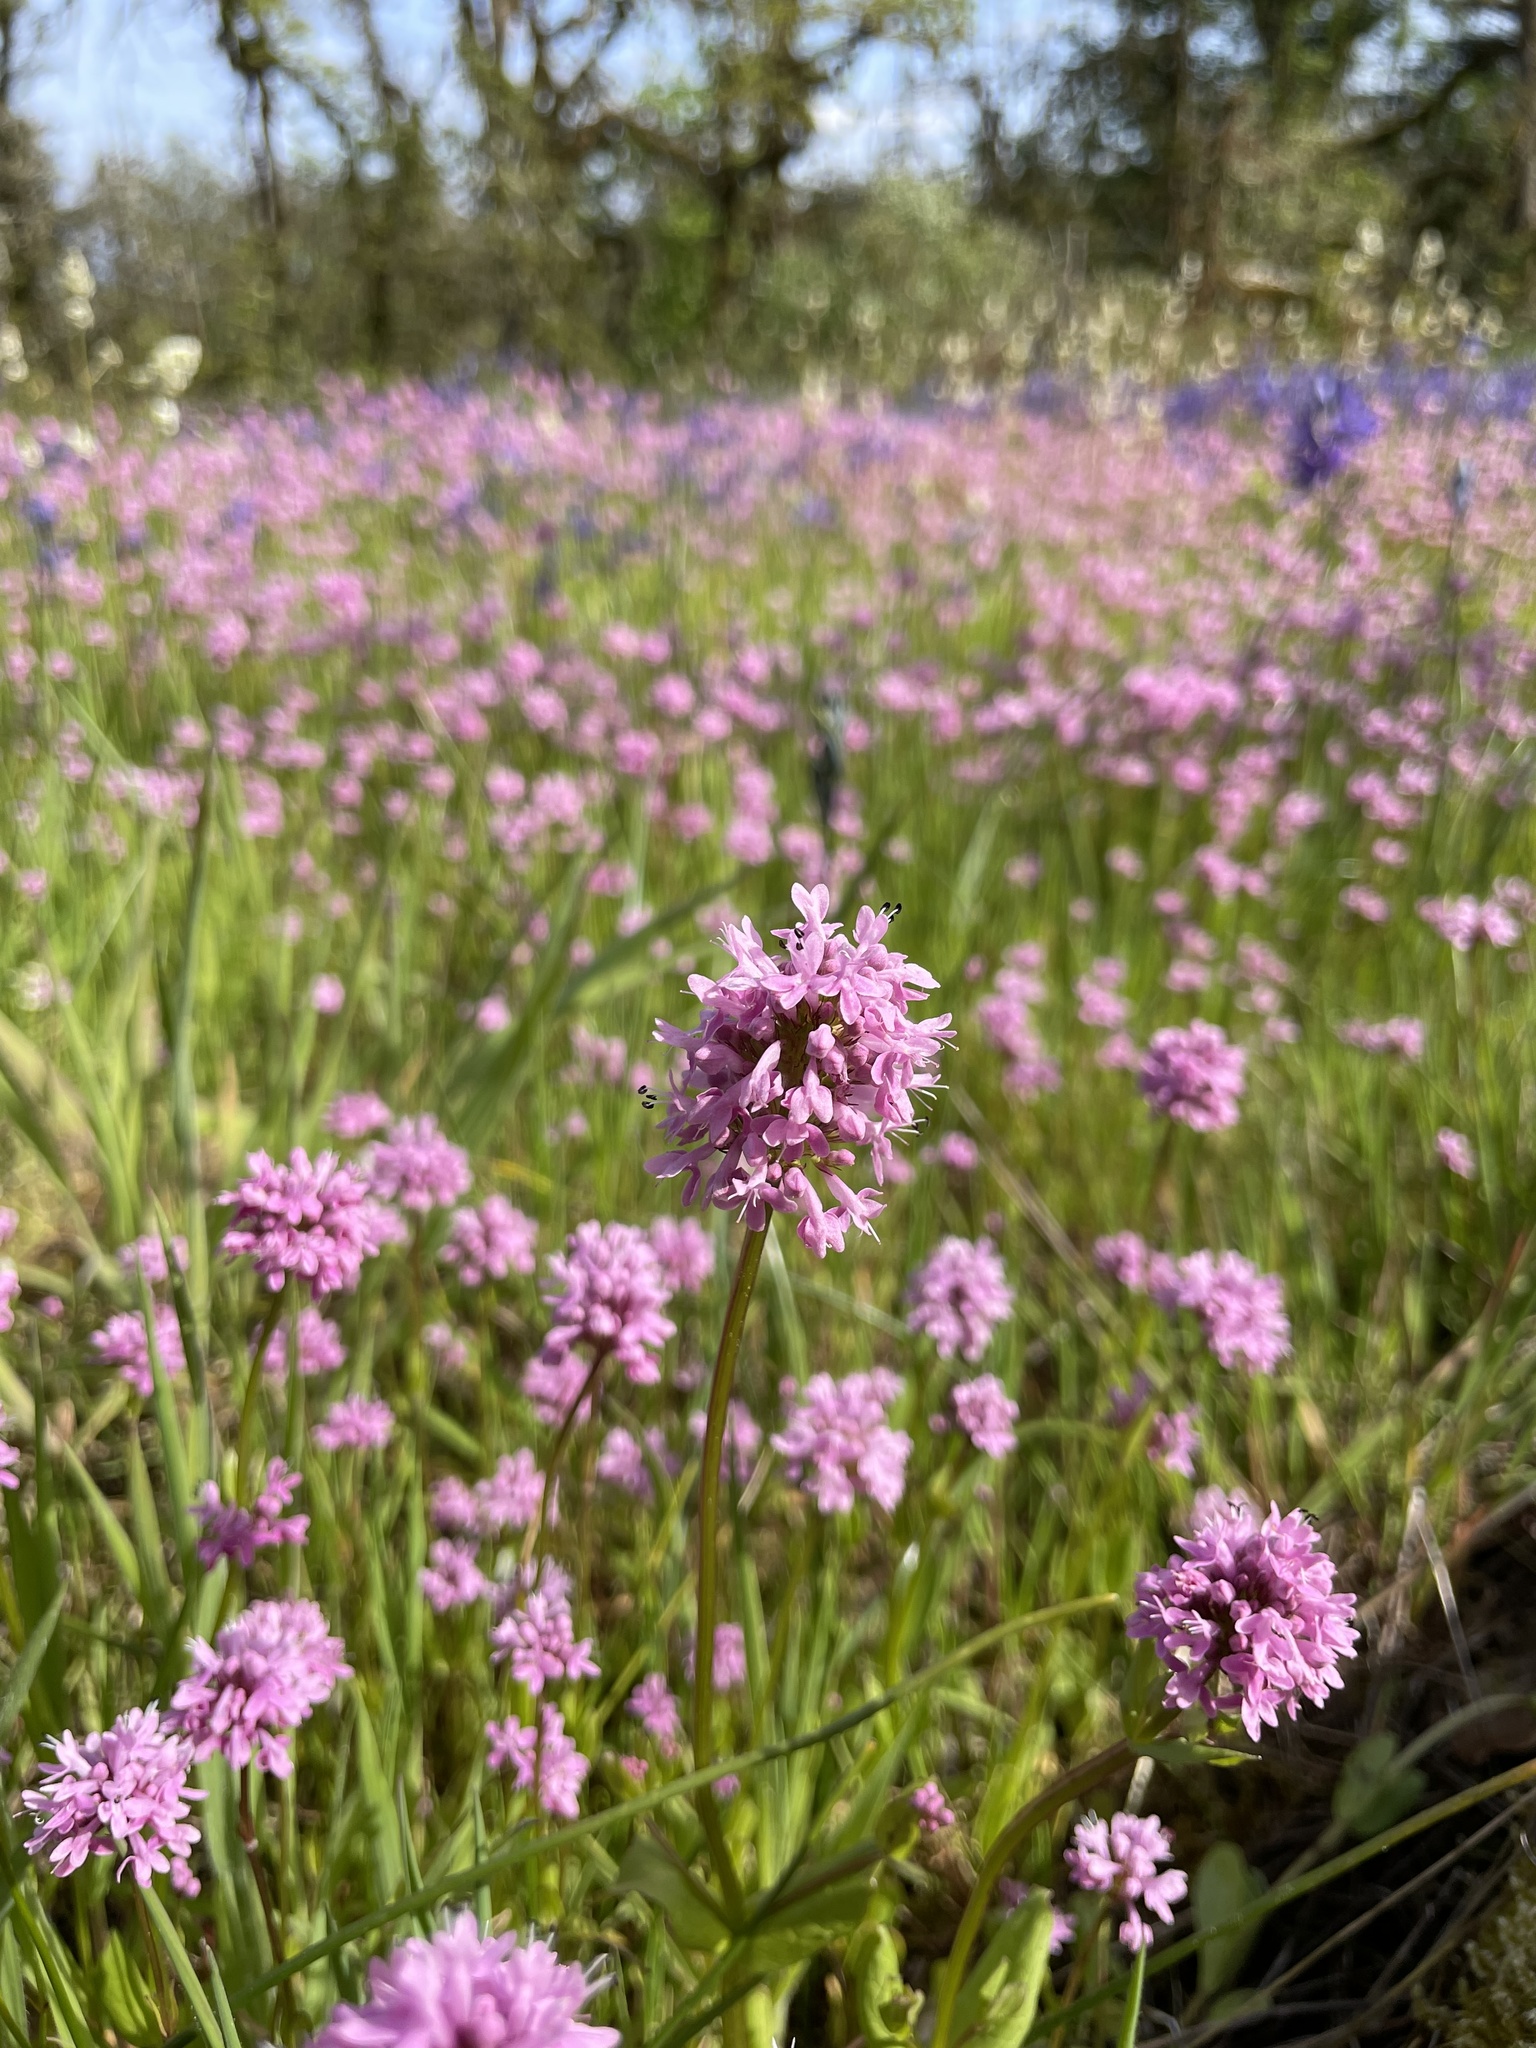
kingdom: Plantae
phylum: Tracheophyta
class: Magnoliopsida
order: Dipsacales
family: Caprifoliaceae
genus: Plectritis
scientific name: Plectritis congesta
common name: Pink plectritis
